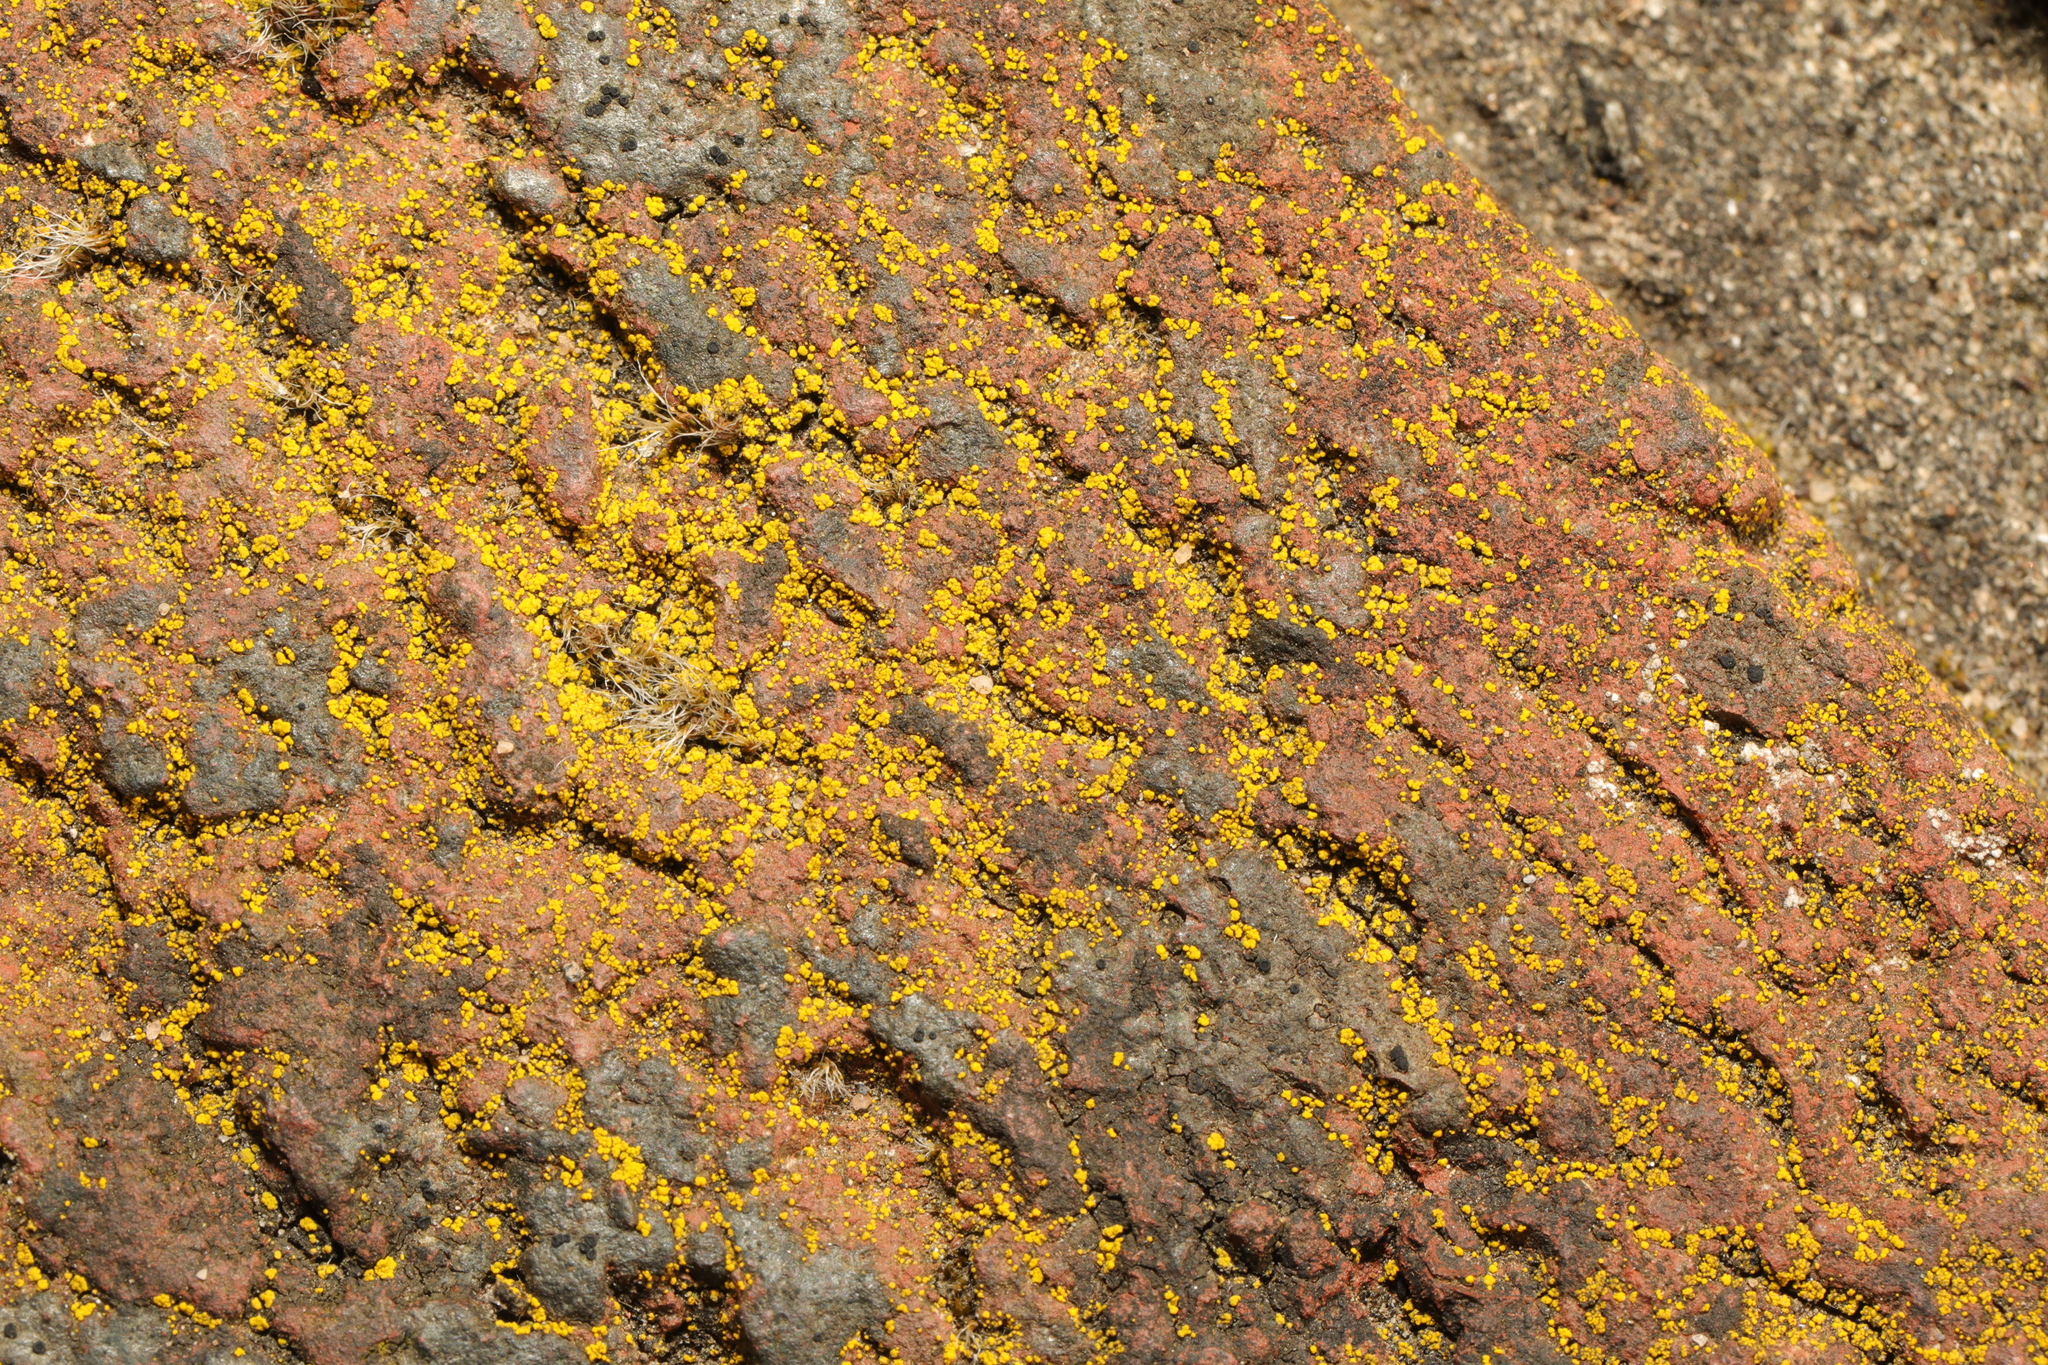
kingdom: Fungi
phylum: Ascomycota
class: Candelariomycetes
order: Candelariales
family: Candelariaceae
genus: Candelariella
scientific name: Candelariella vitellina
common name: Common goldspeck
